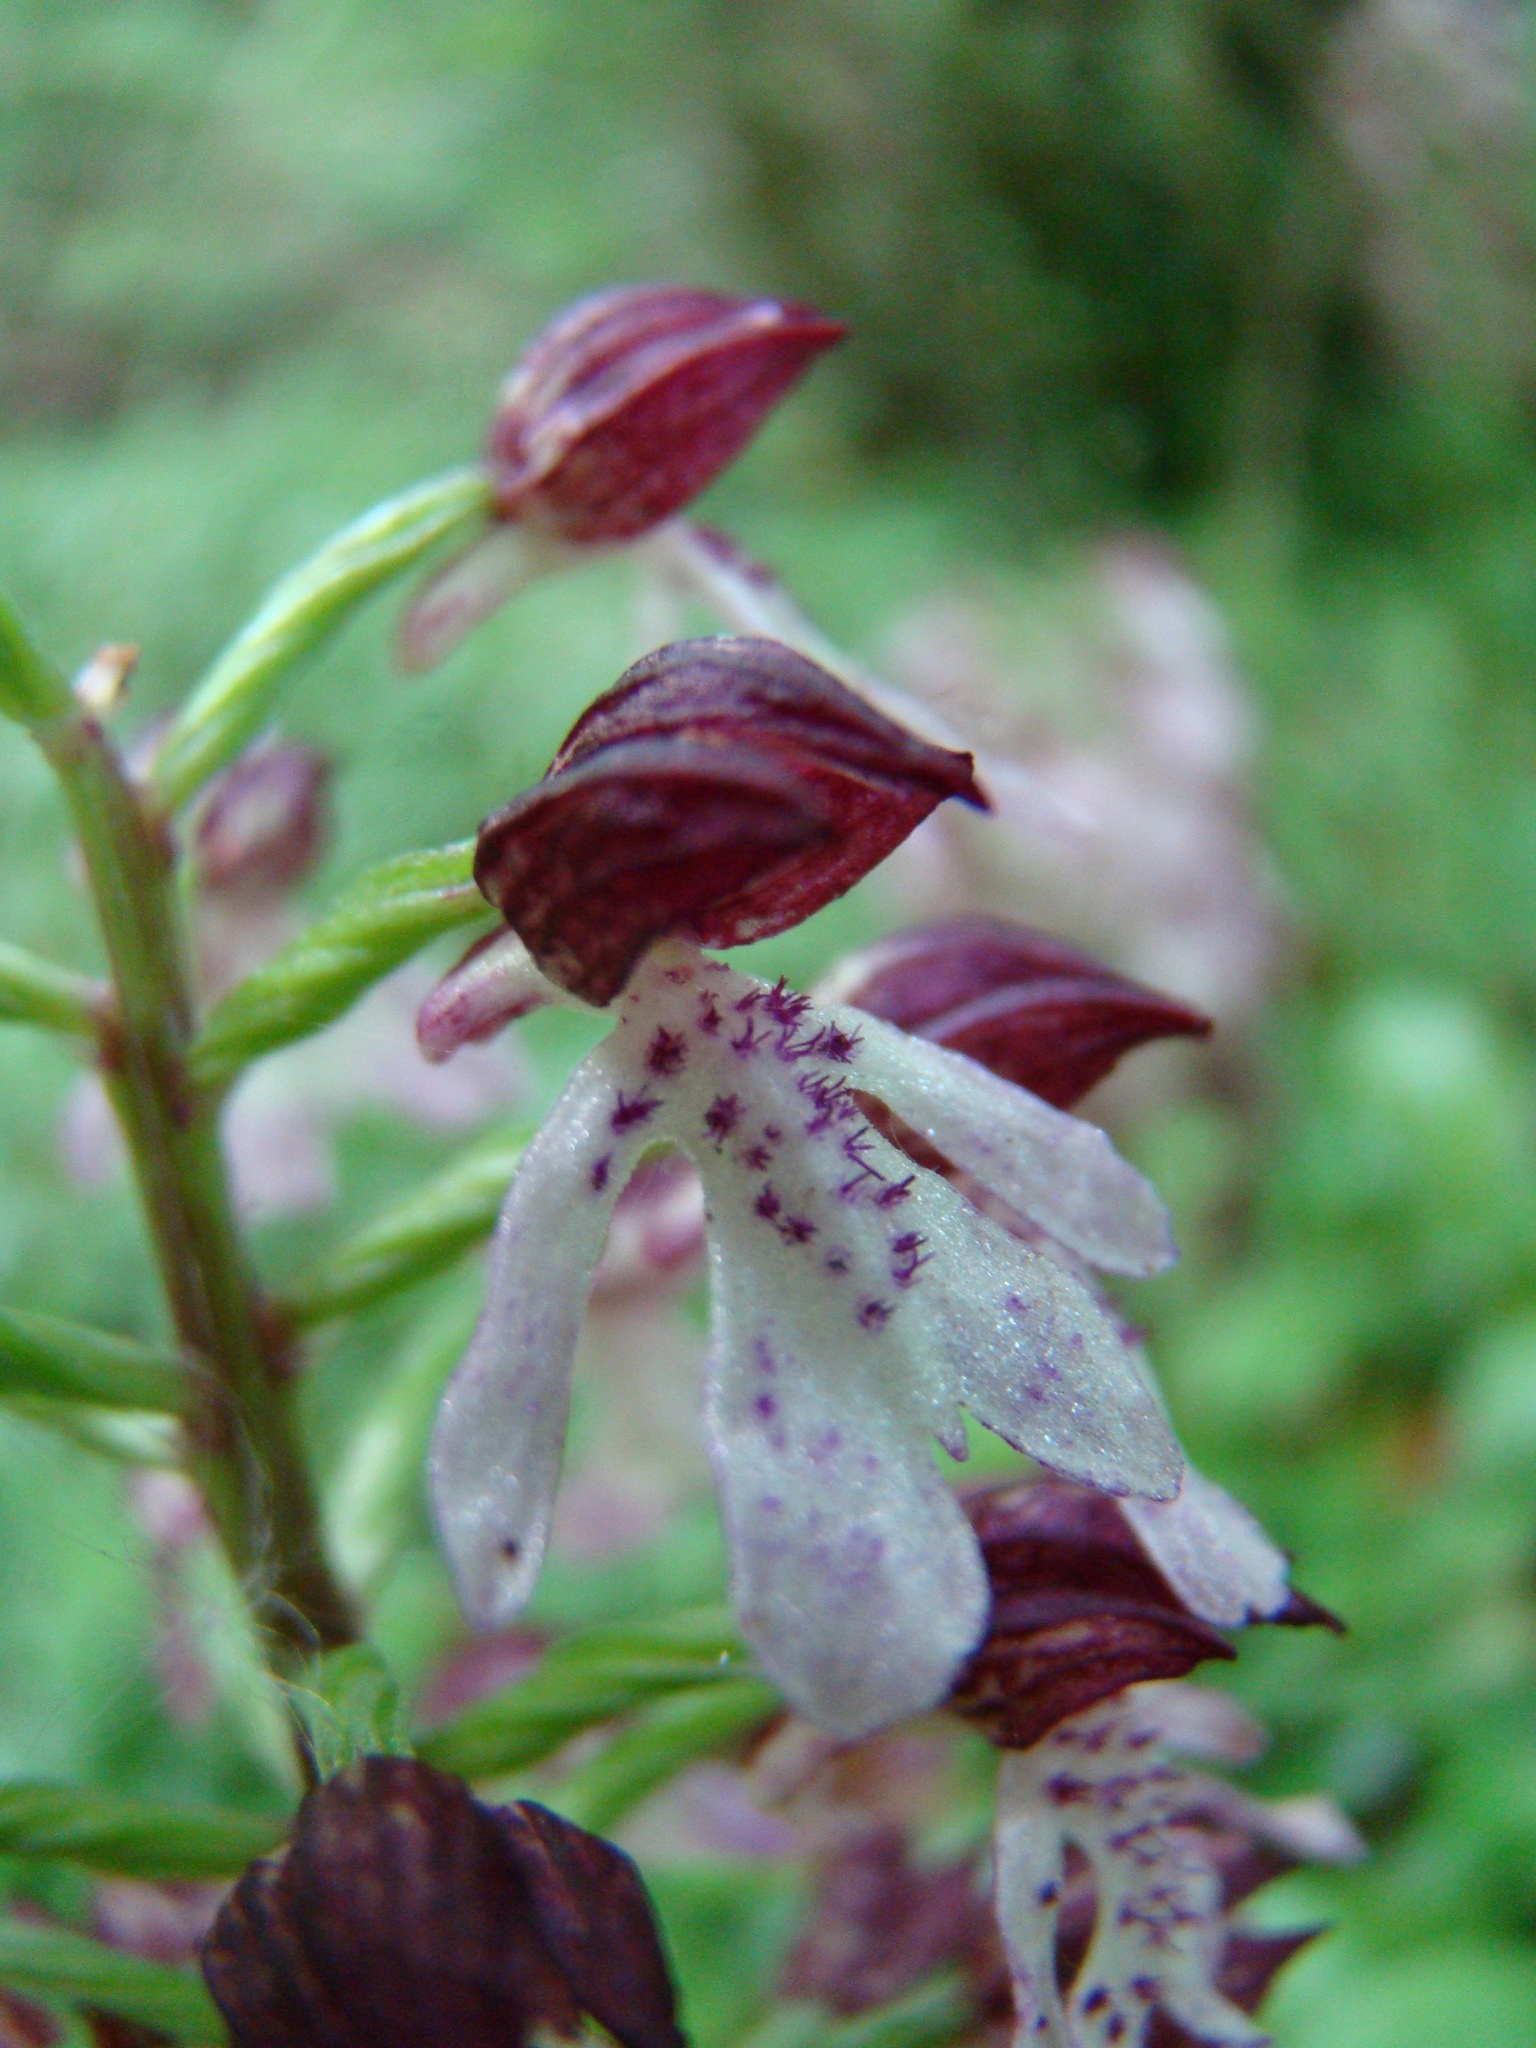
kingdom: Plantae
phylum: Tracheophyta
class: Liliopsida
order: Asparagales
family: Orchidaceae
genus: Orchis
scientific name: Orchis purpurea
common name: Lady orchid
